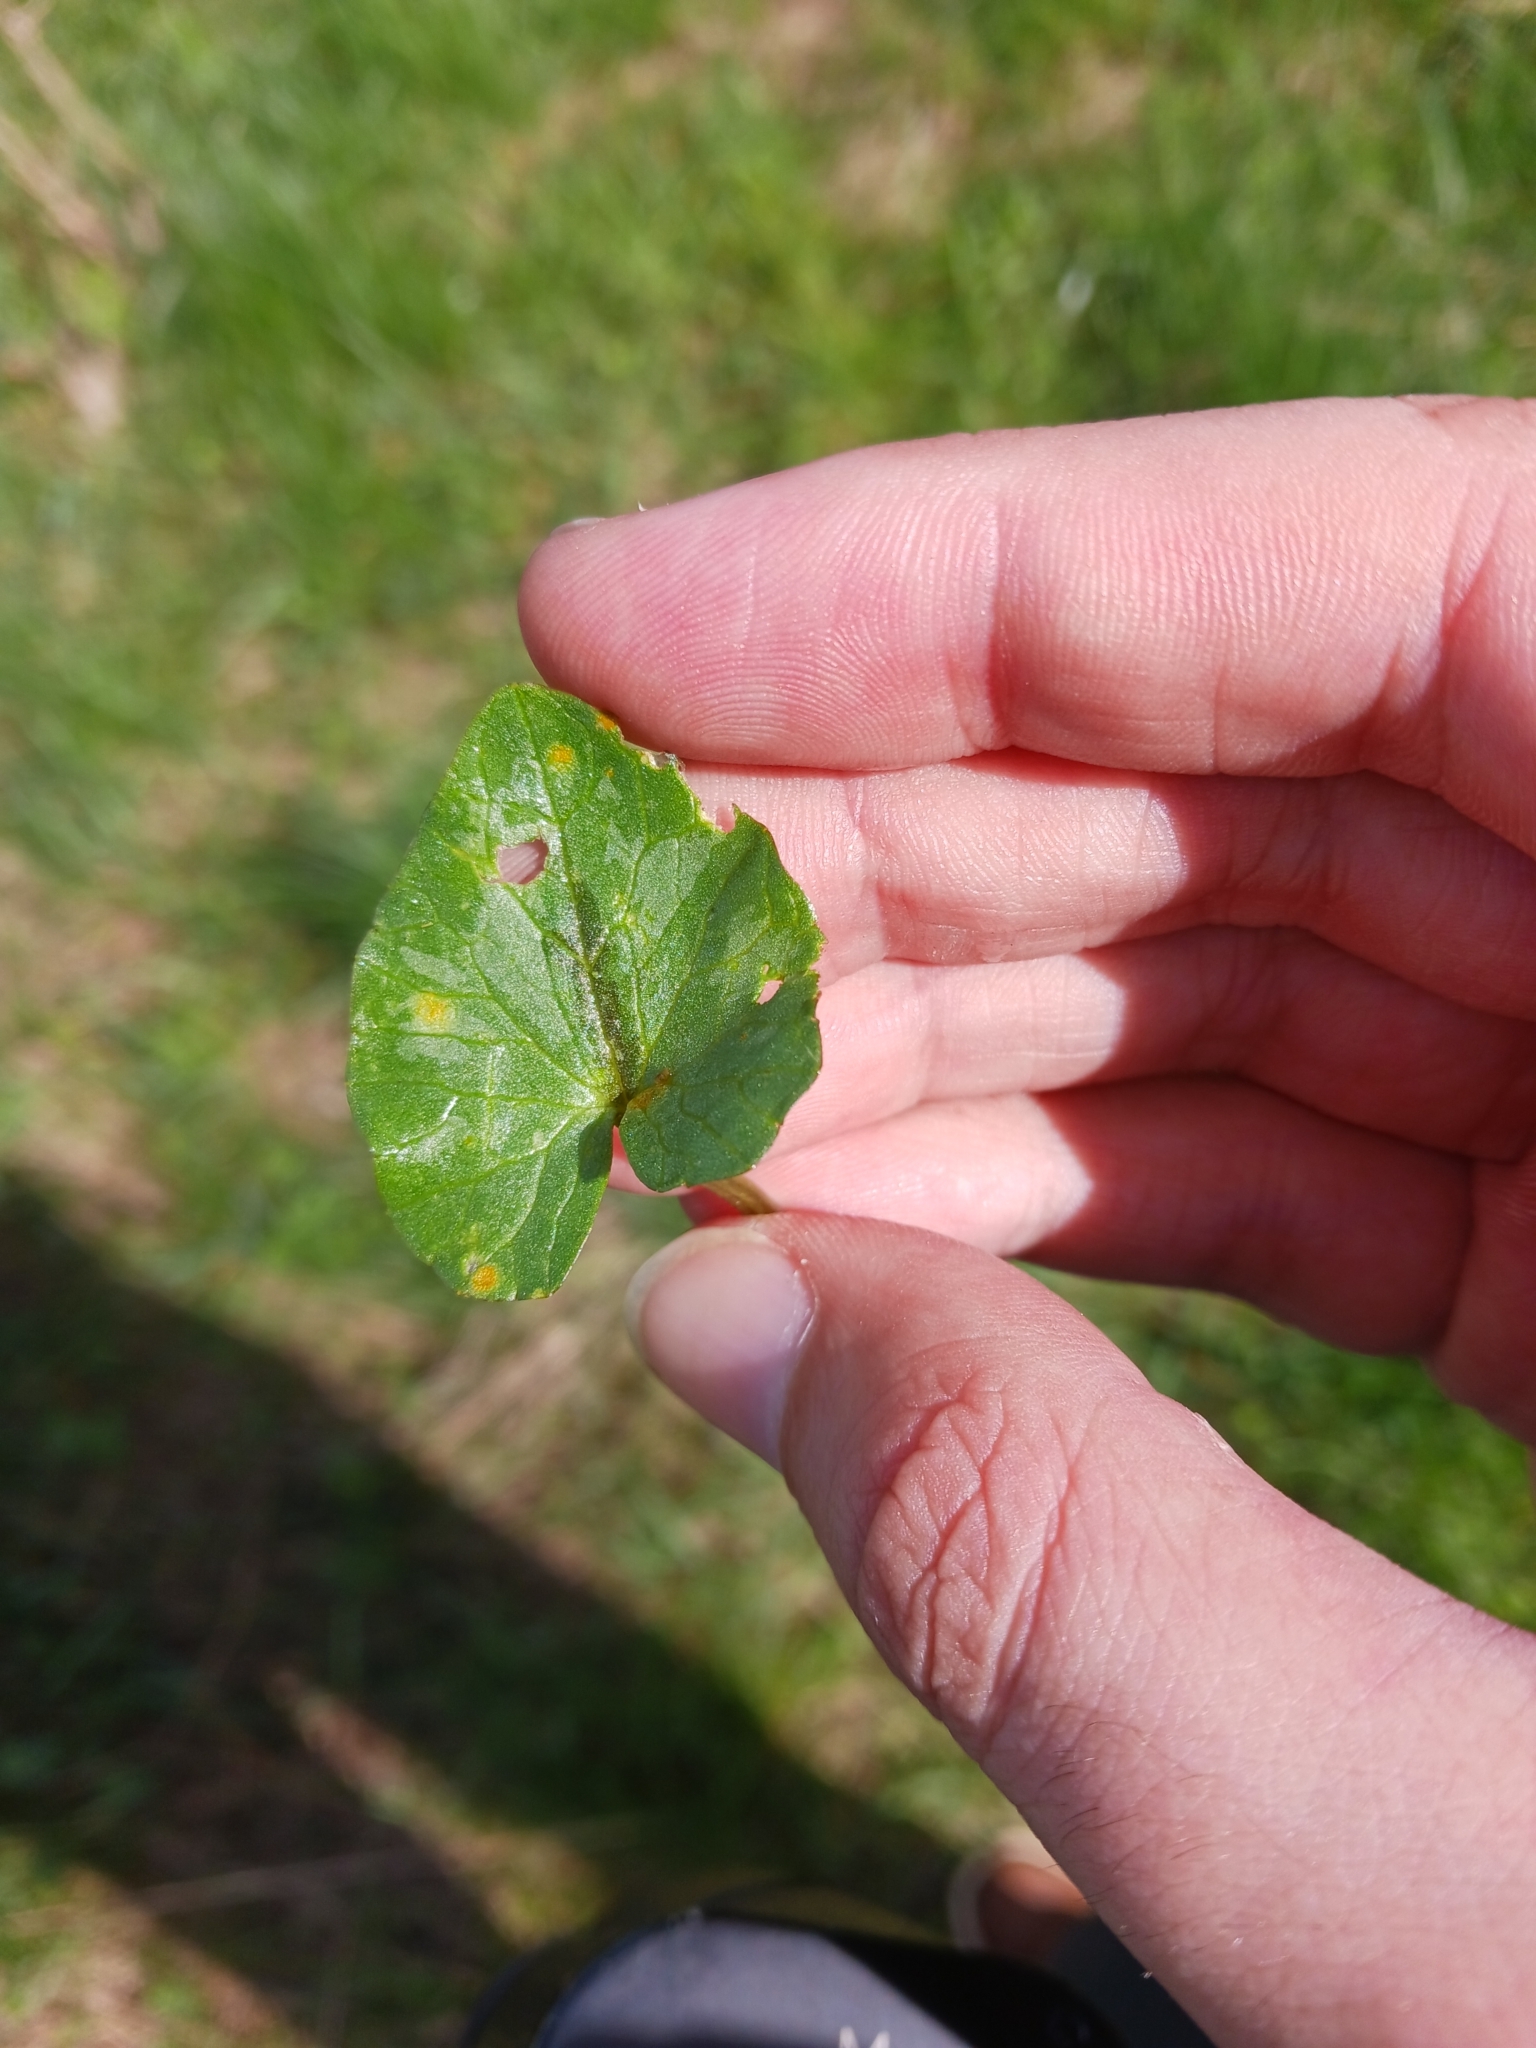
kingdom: Fungi
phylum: Basidiomycota
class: Pucciniomycetes
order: Pucciniales
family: Pucciniaceae
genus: Uromyces
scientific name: Uromyces
